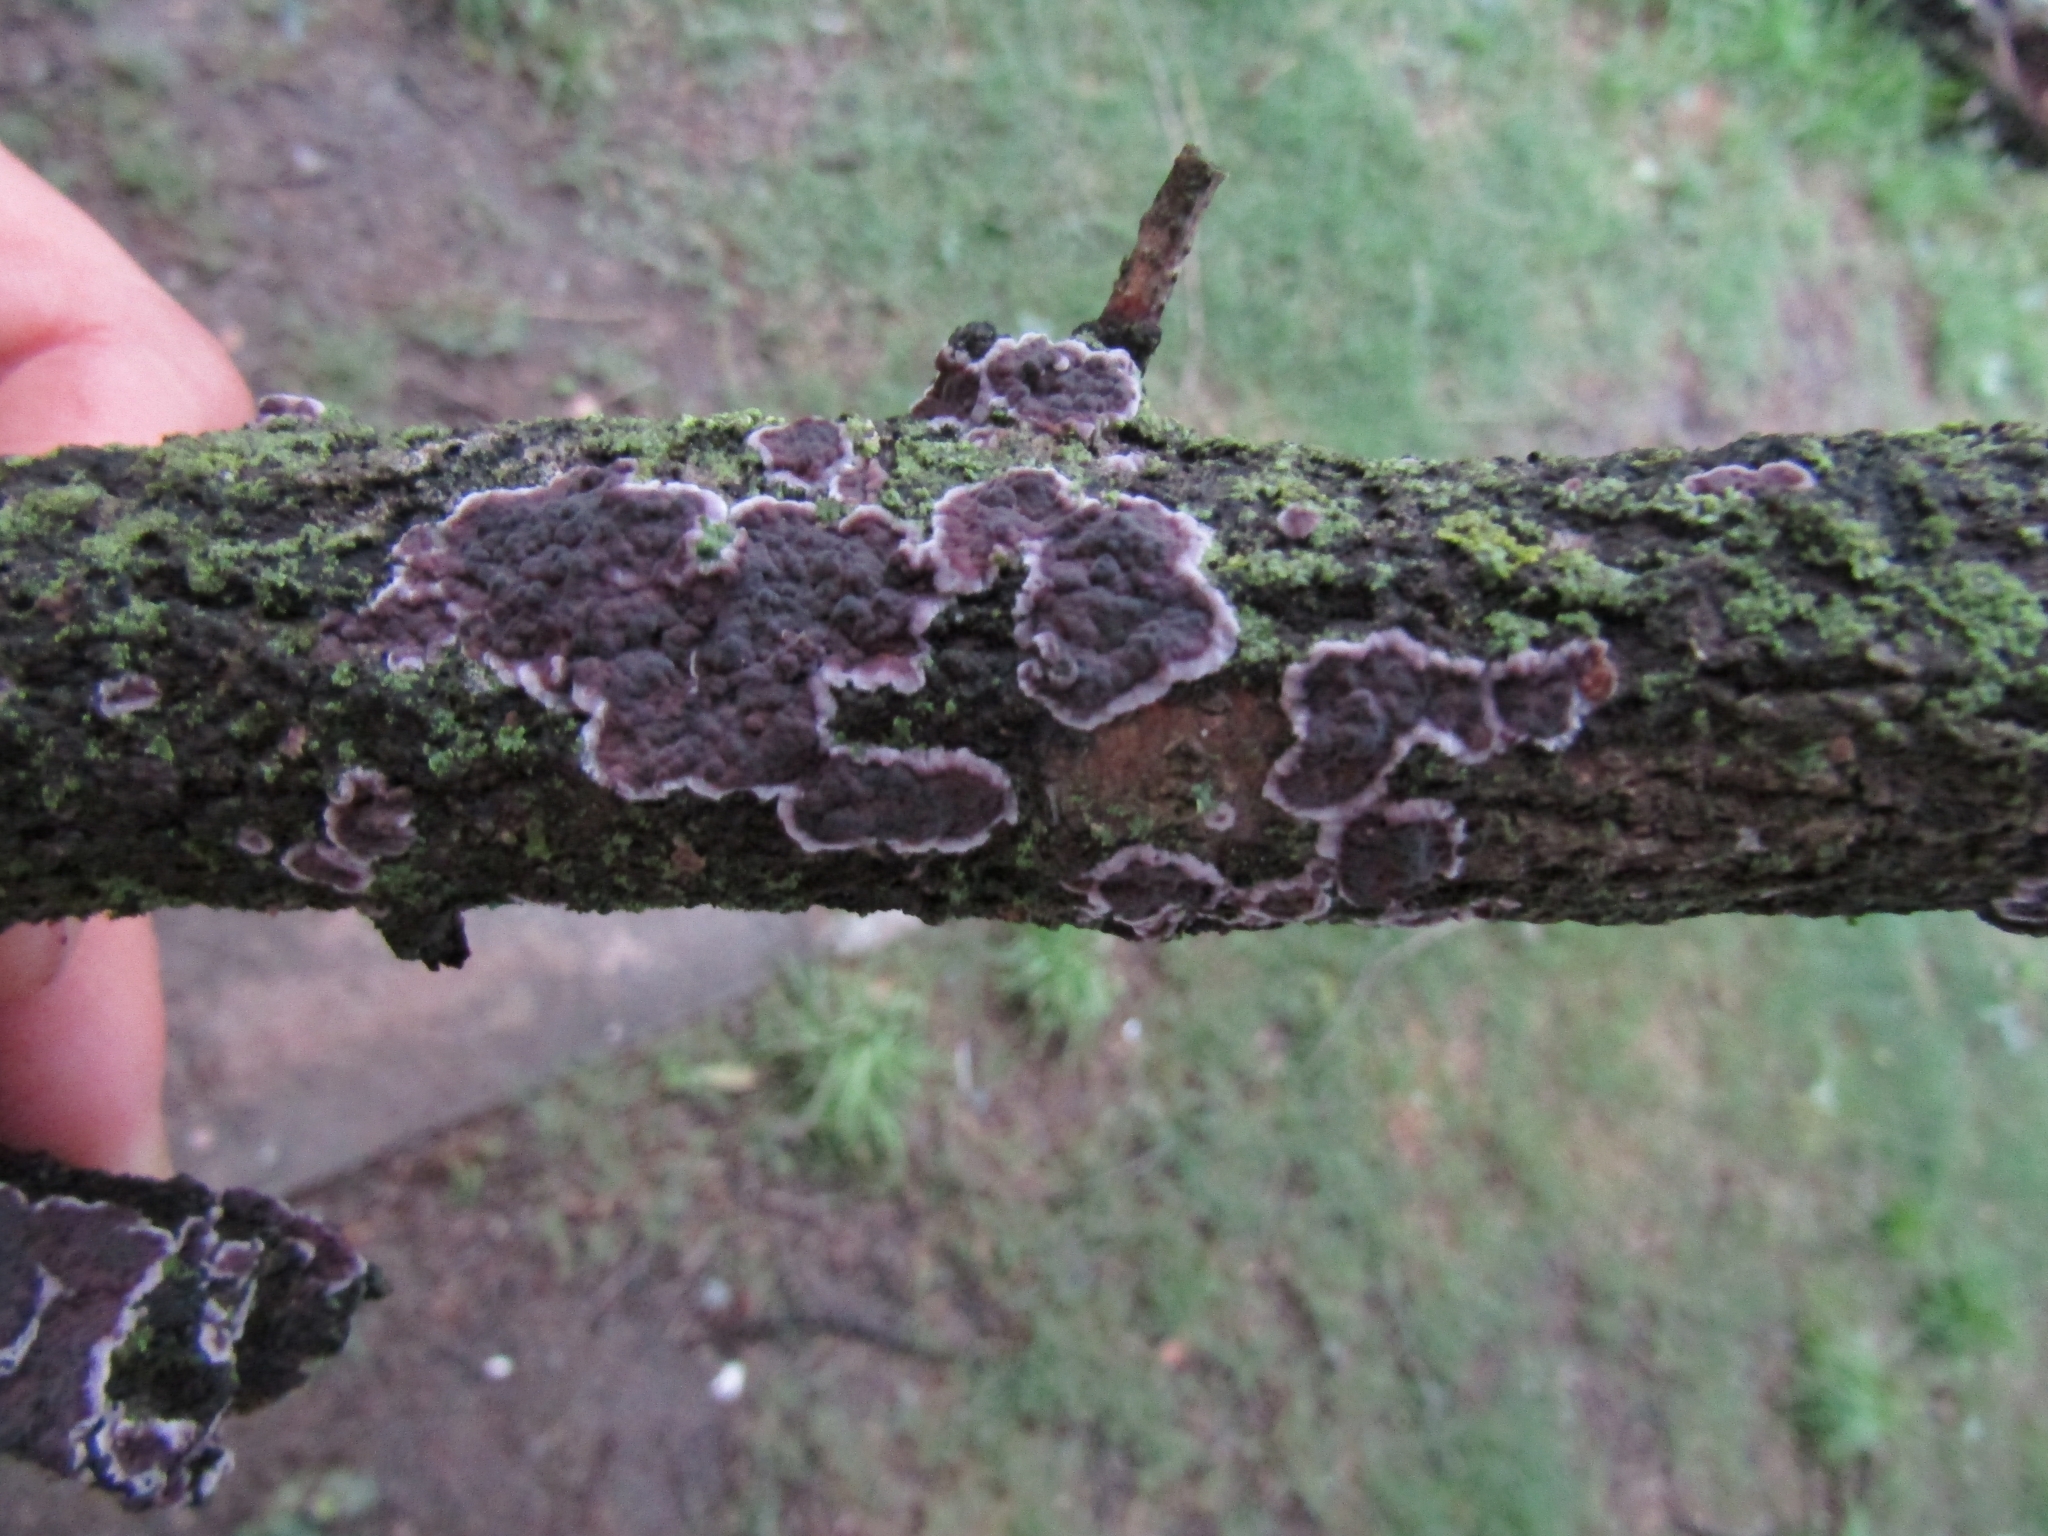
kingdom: Fungi
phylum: Basidiomycota
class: Agaricomycetes
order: Russulales
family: Peniophoraceae
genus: Peniophora
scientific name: Peniophora albobadia
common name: Giraffe spots
